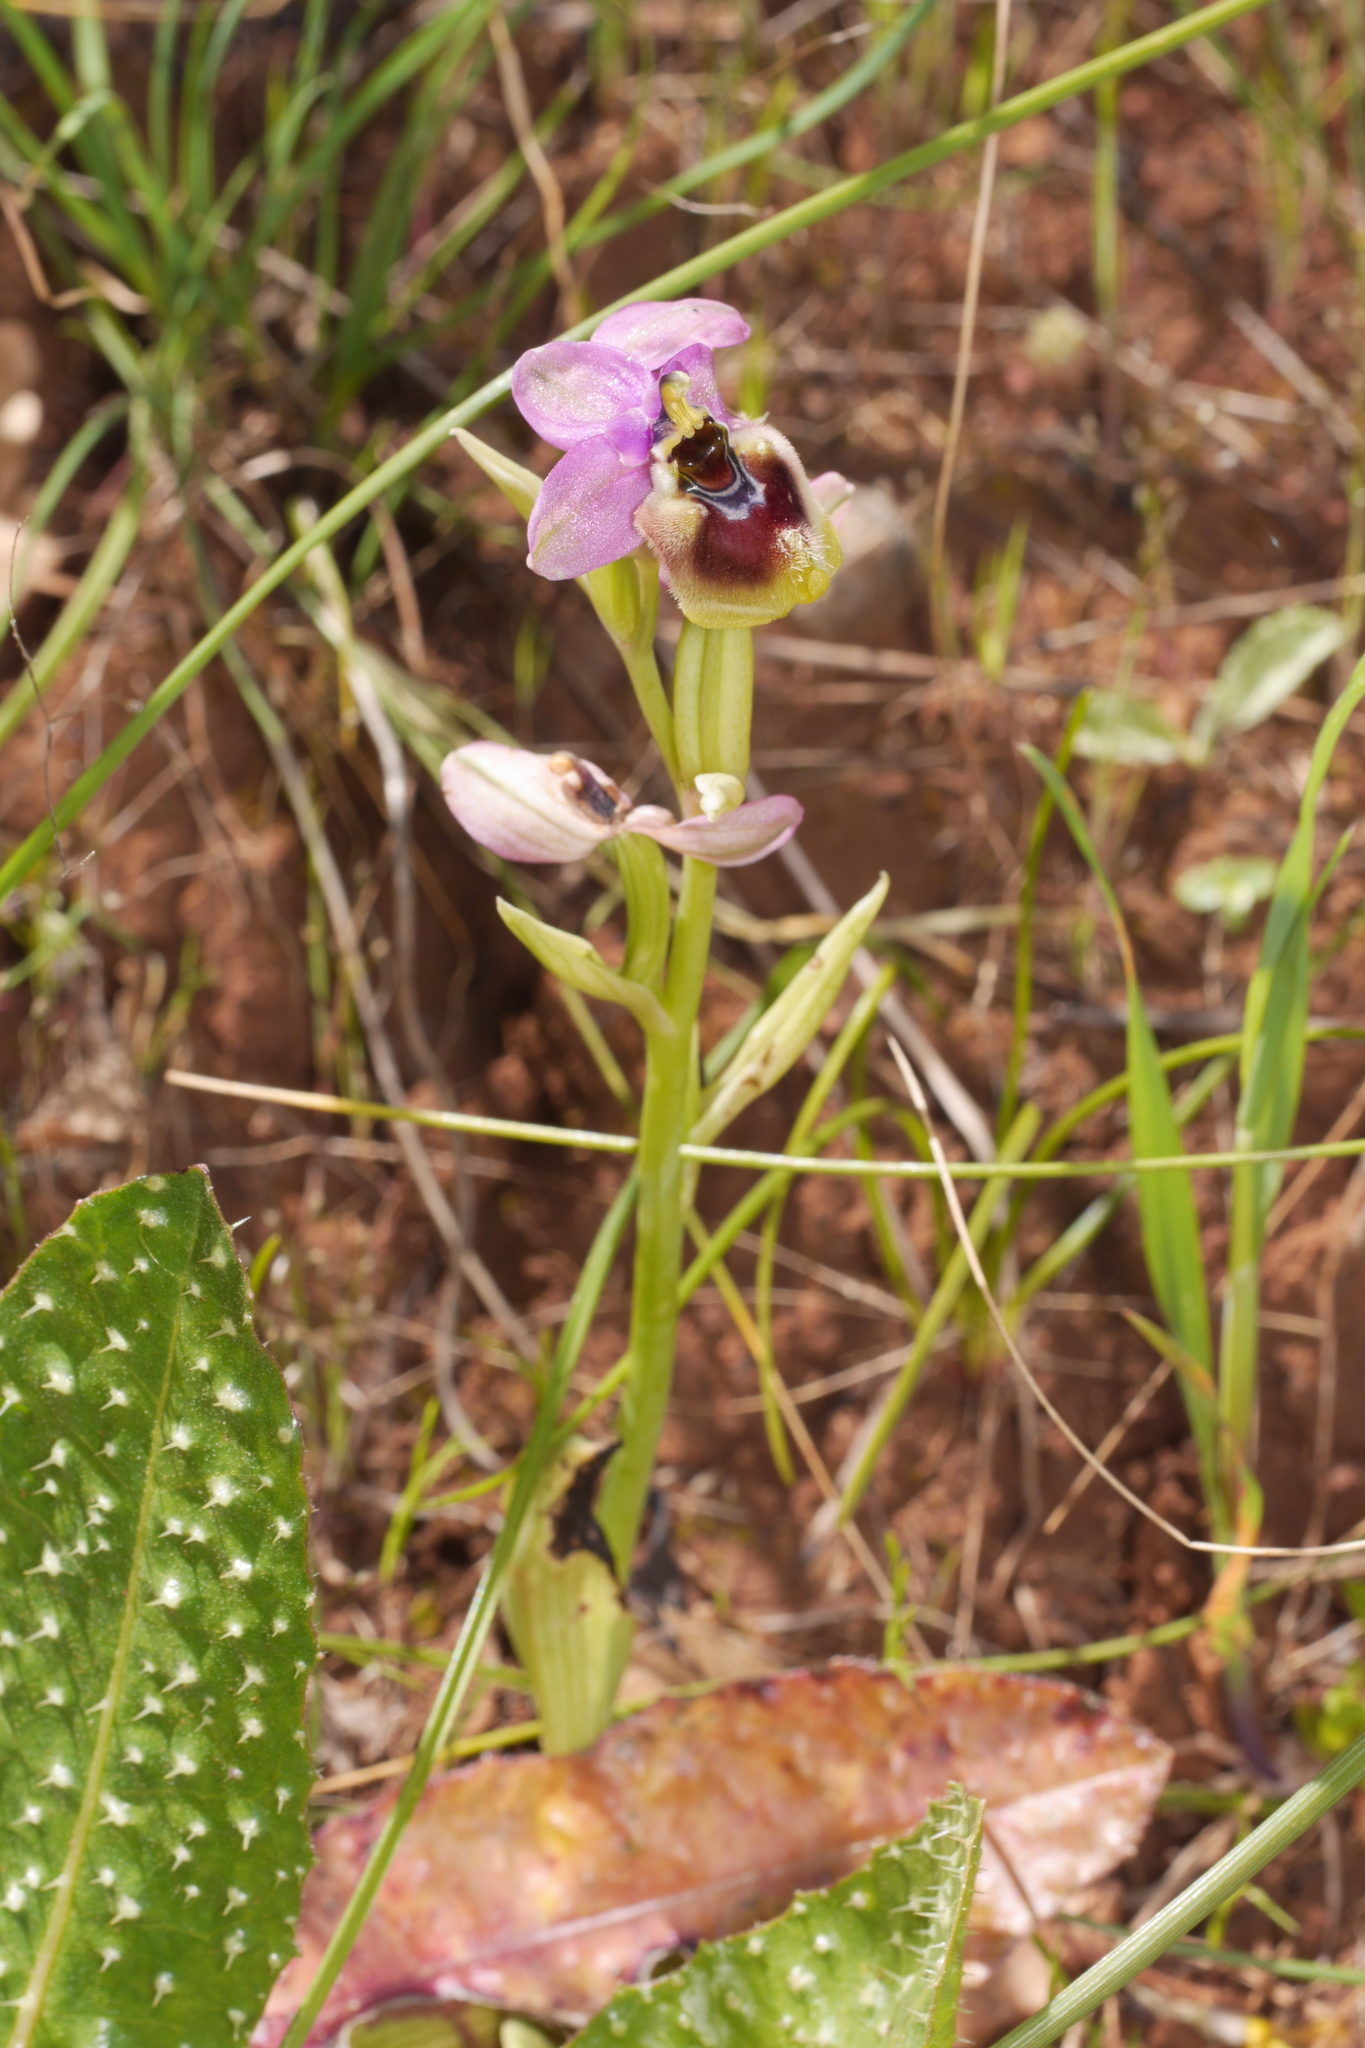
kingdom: Plantae
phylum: Tracheophyta
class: Liliopsida
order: Asparagales
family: Orchidaceae
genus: Ophrys
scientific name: Ophrys tenthredinifera
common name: Sawfly orchid
